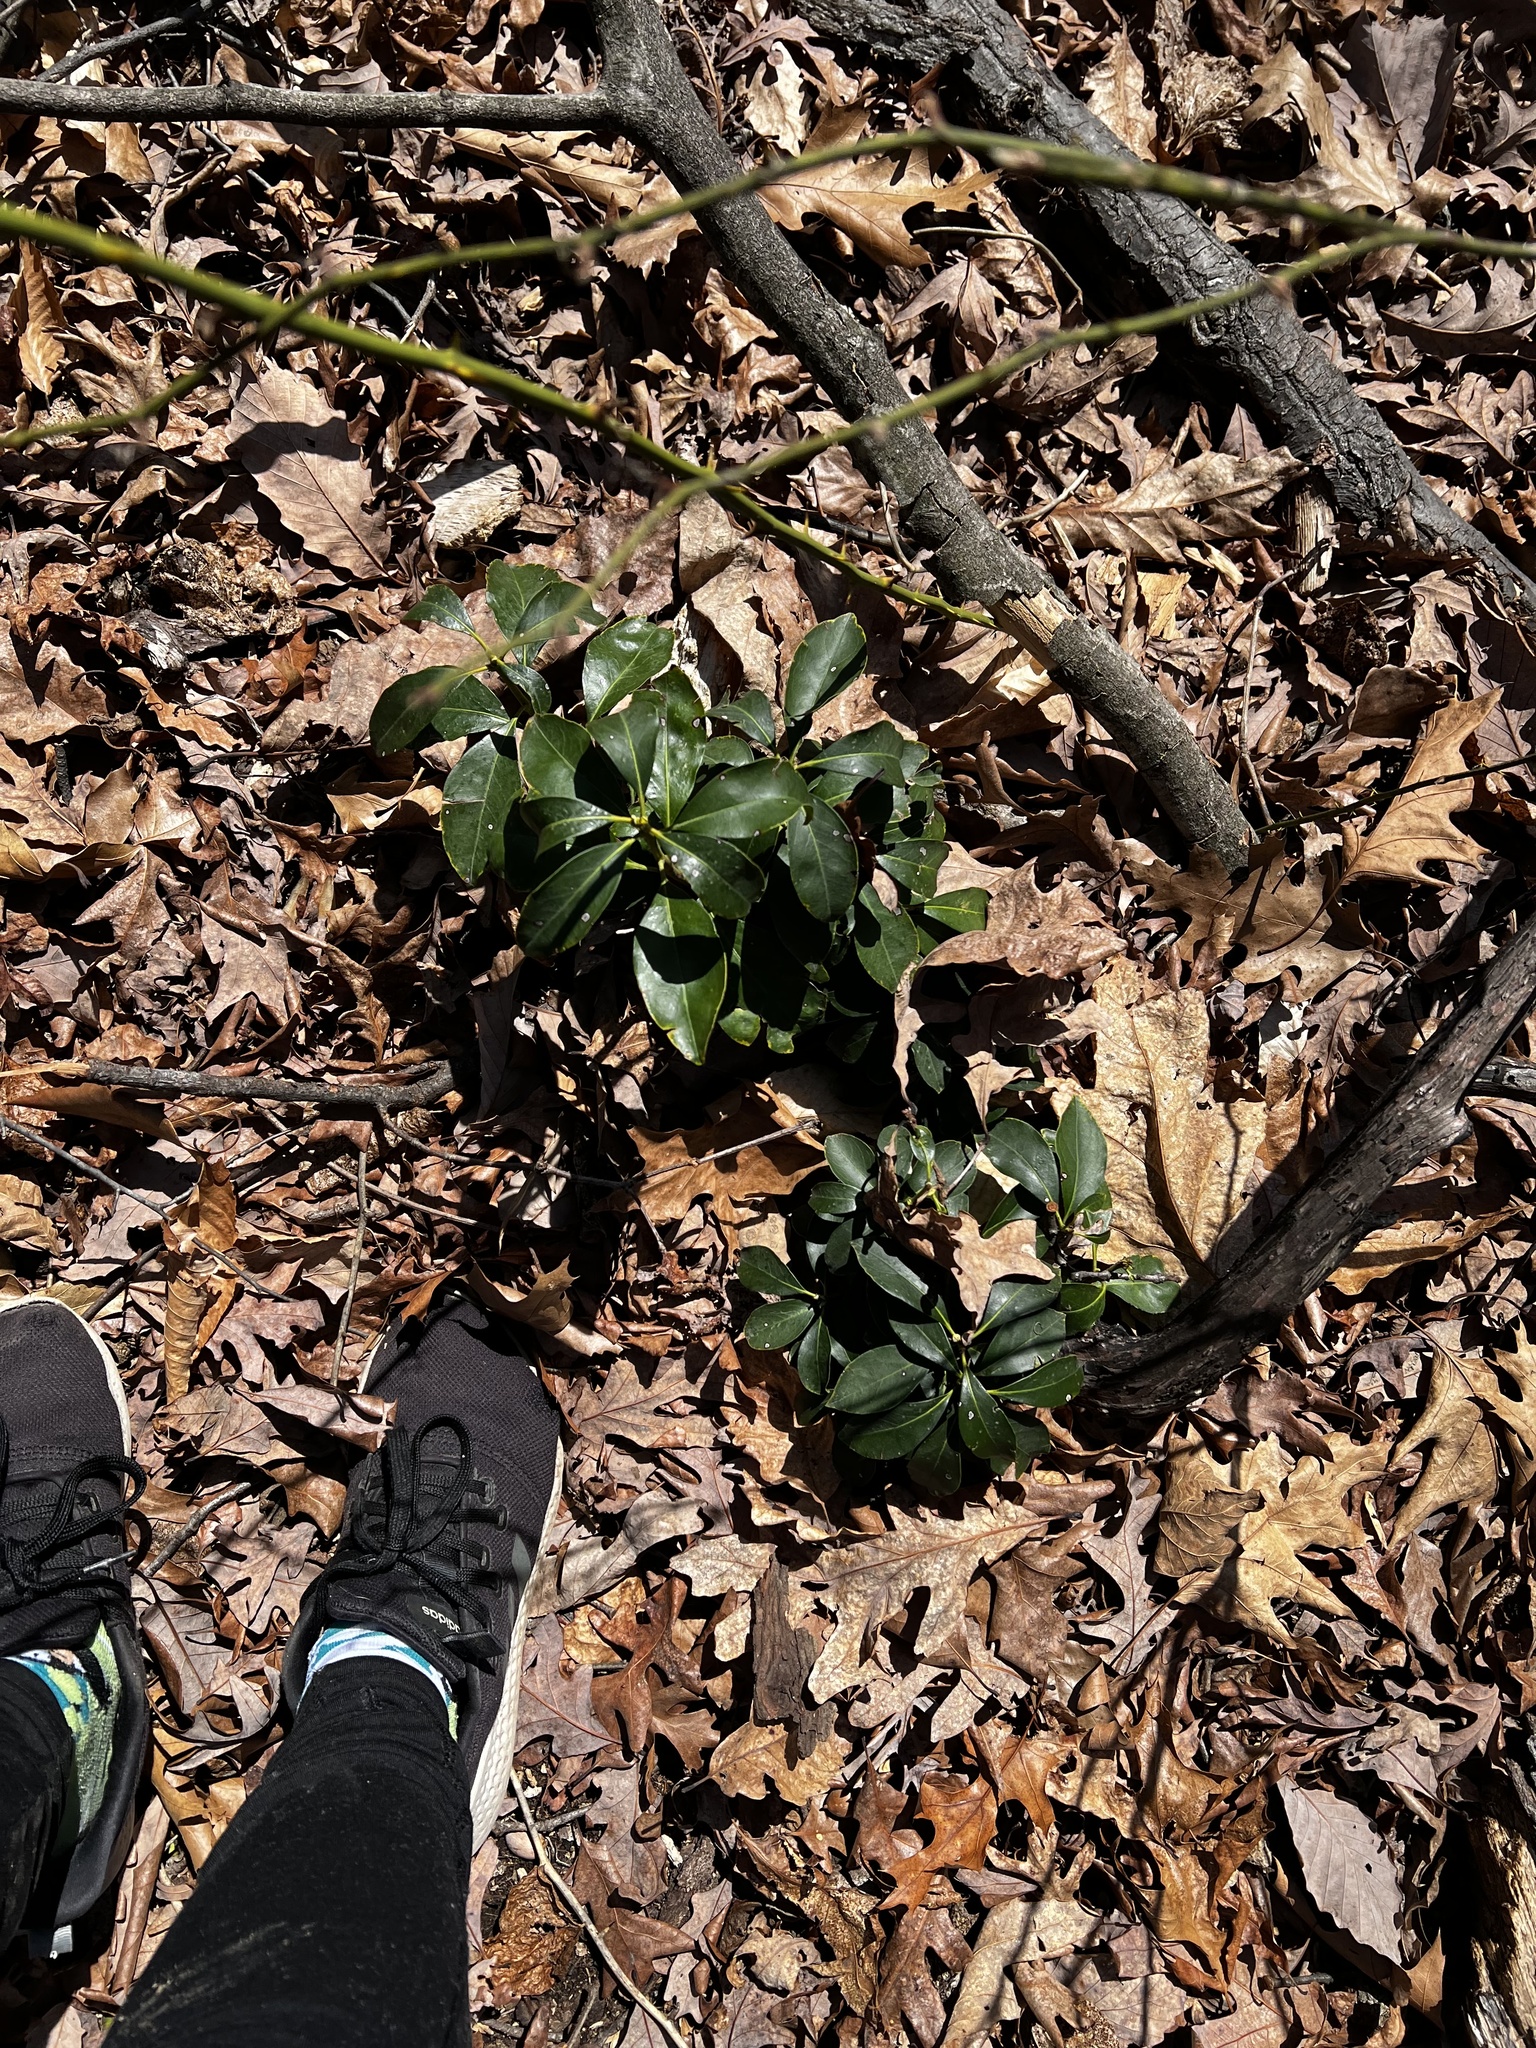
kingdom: Plantae
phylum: Tracheophyta
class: Magnoliopsida
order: Ericales
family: Ericaceae
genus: Kalmia
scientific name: Kalmia latifolia
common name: Mountain-laurel
